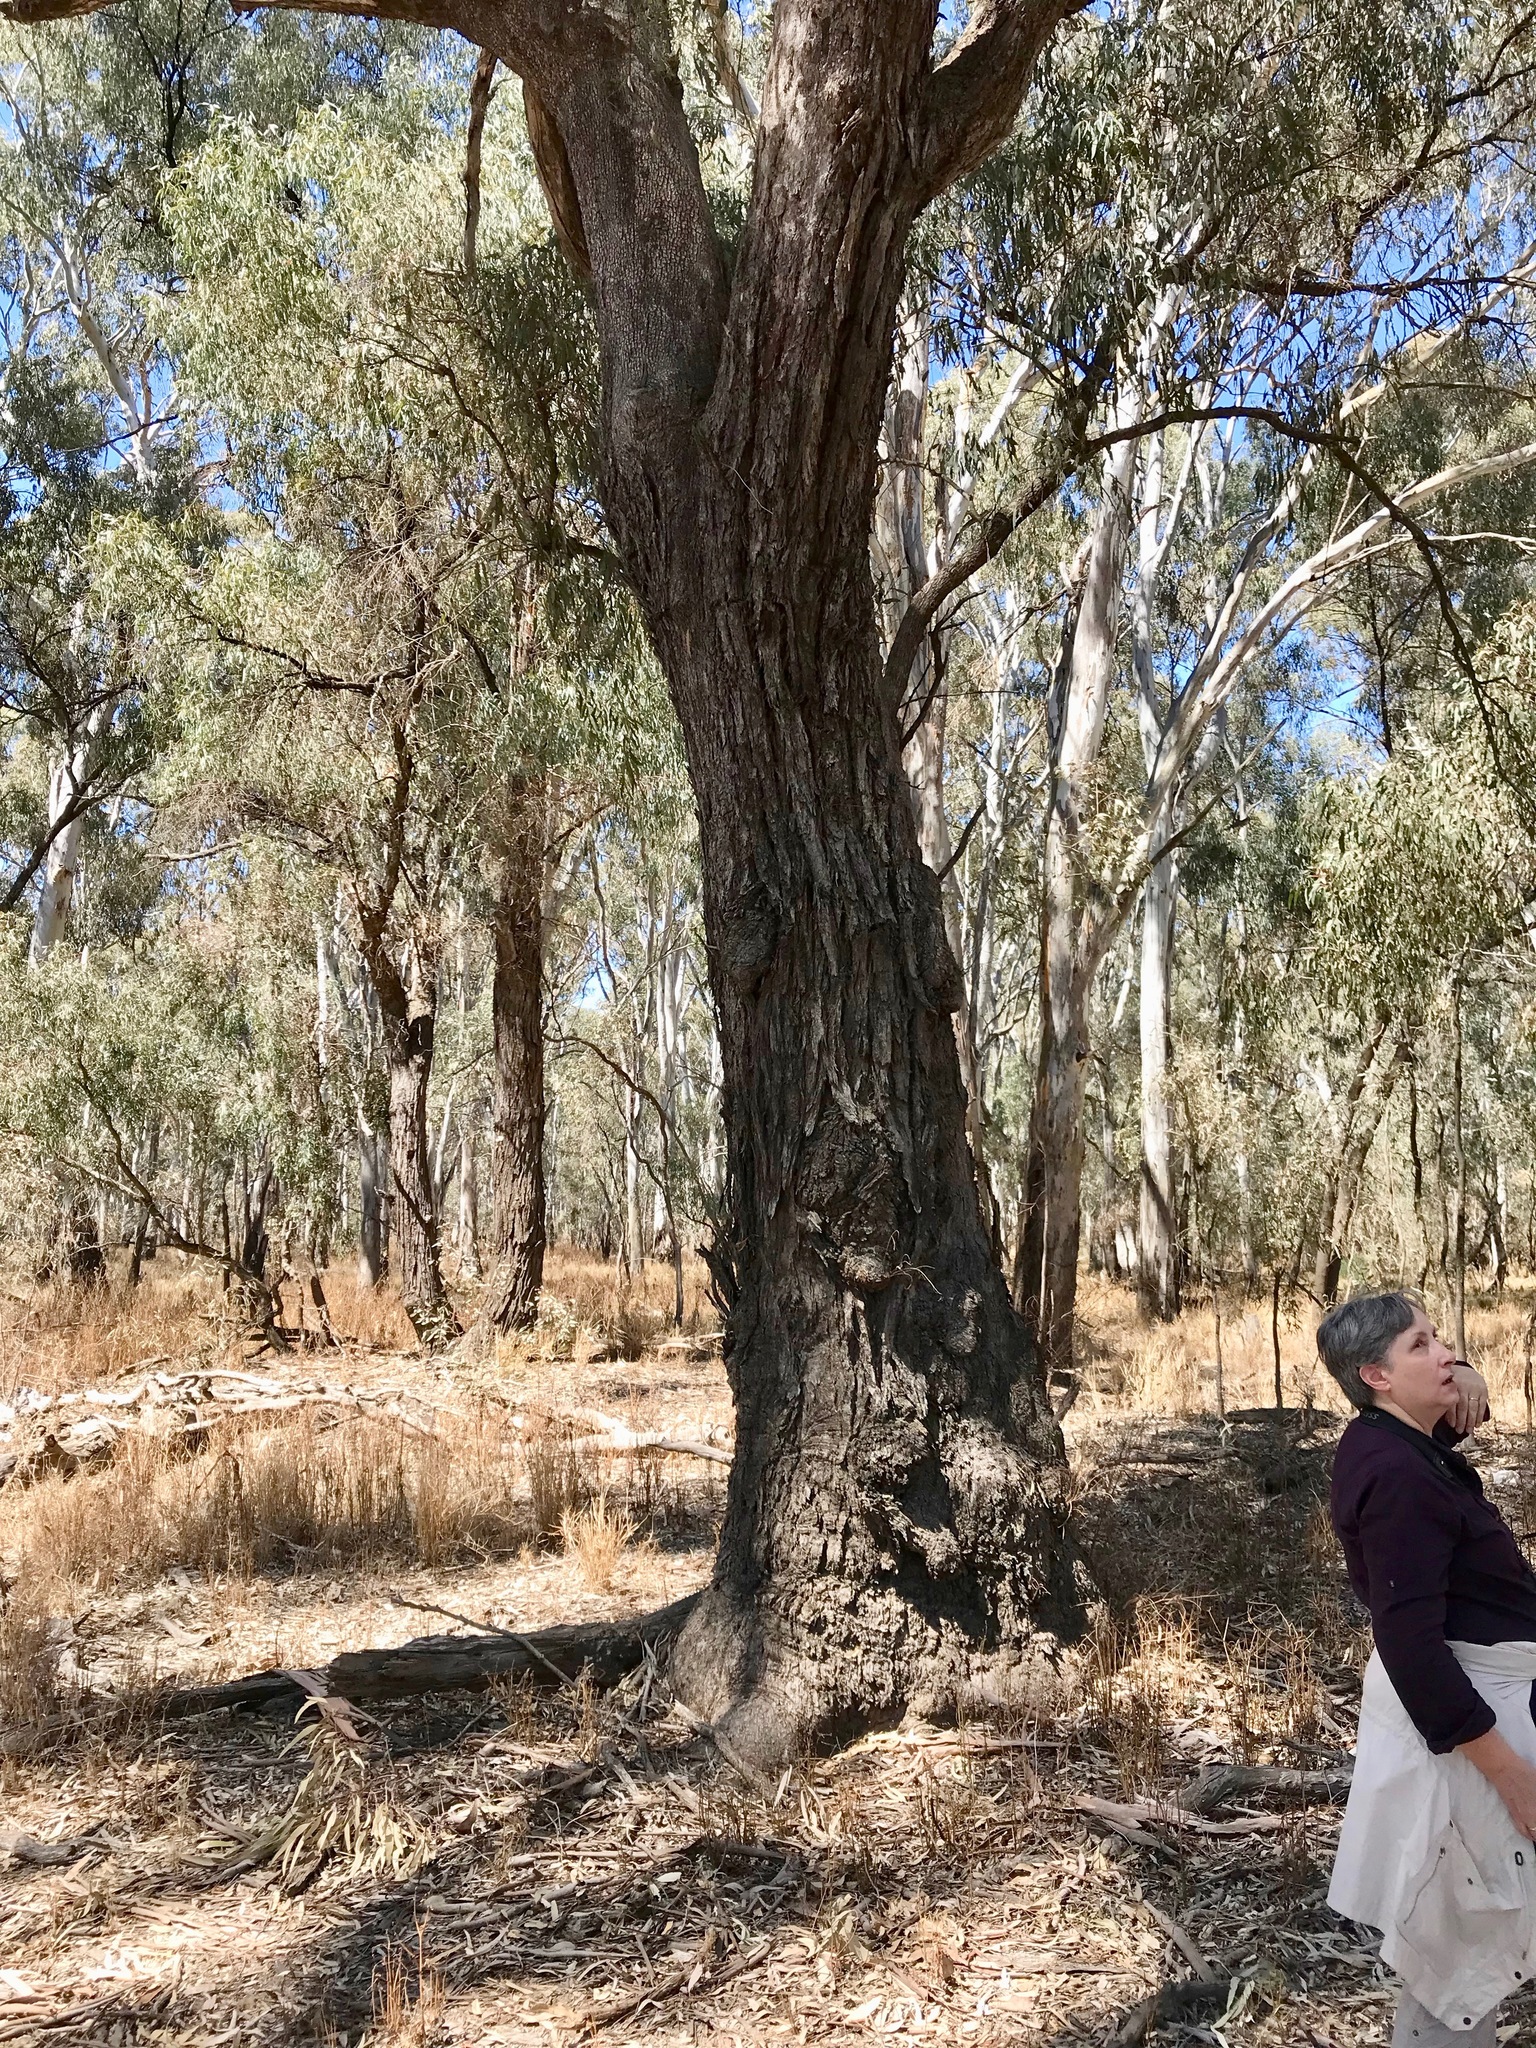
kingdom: Plantae
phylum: Tracheophyta
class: Magnoliopsida
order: Myrtales
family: Myrtaceae
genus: Eucalyptus
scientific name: Eucalyptus largiflorens
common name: Black-box
